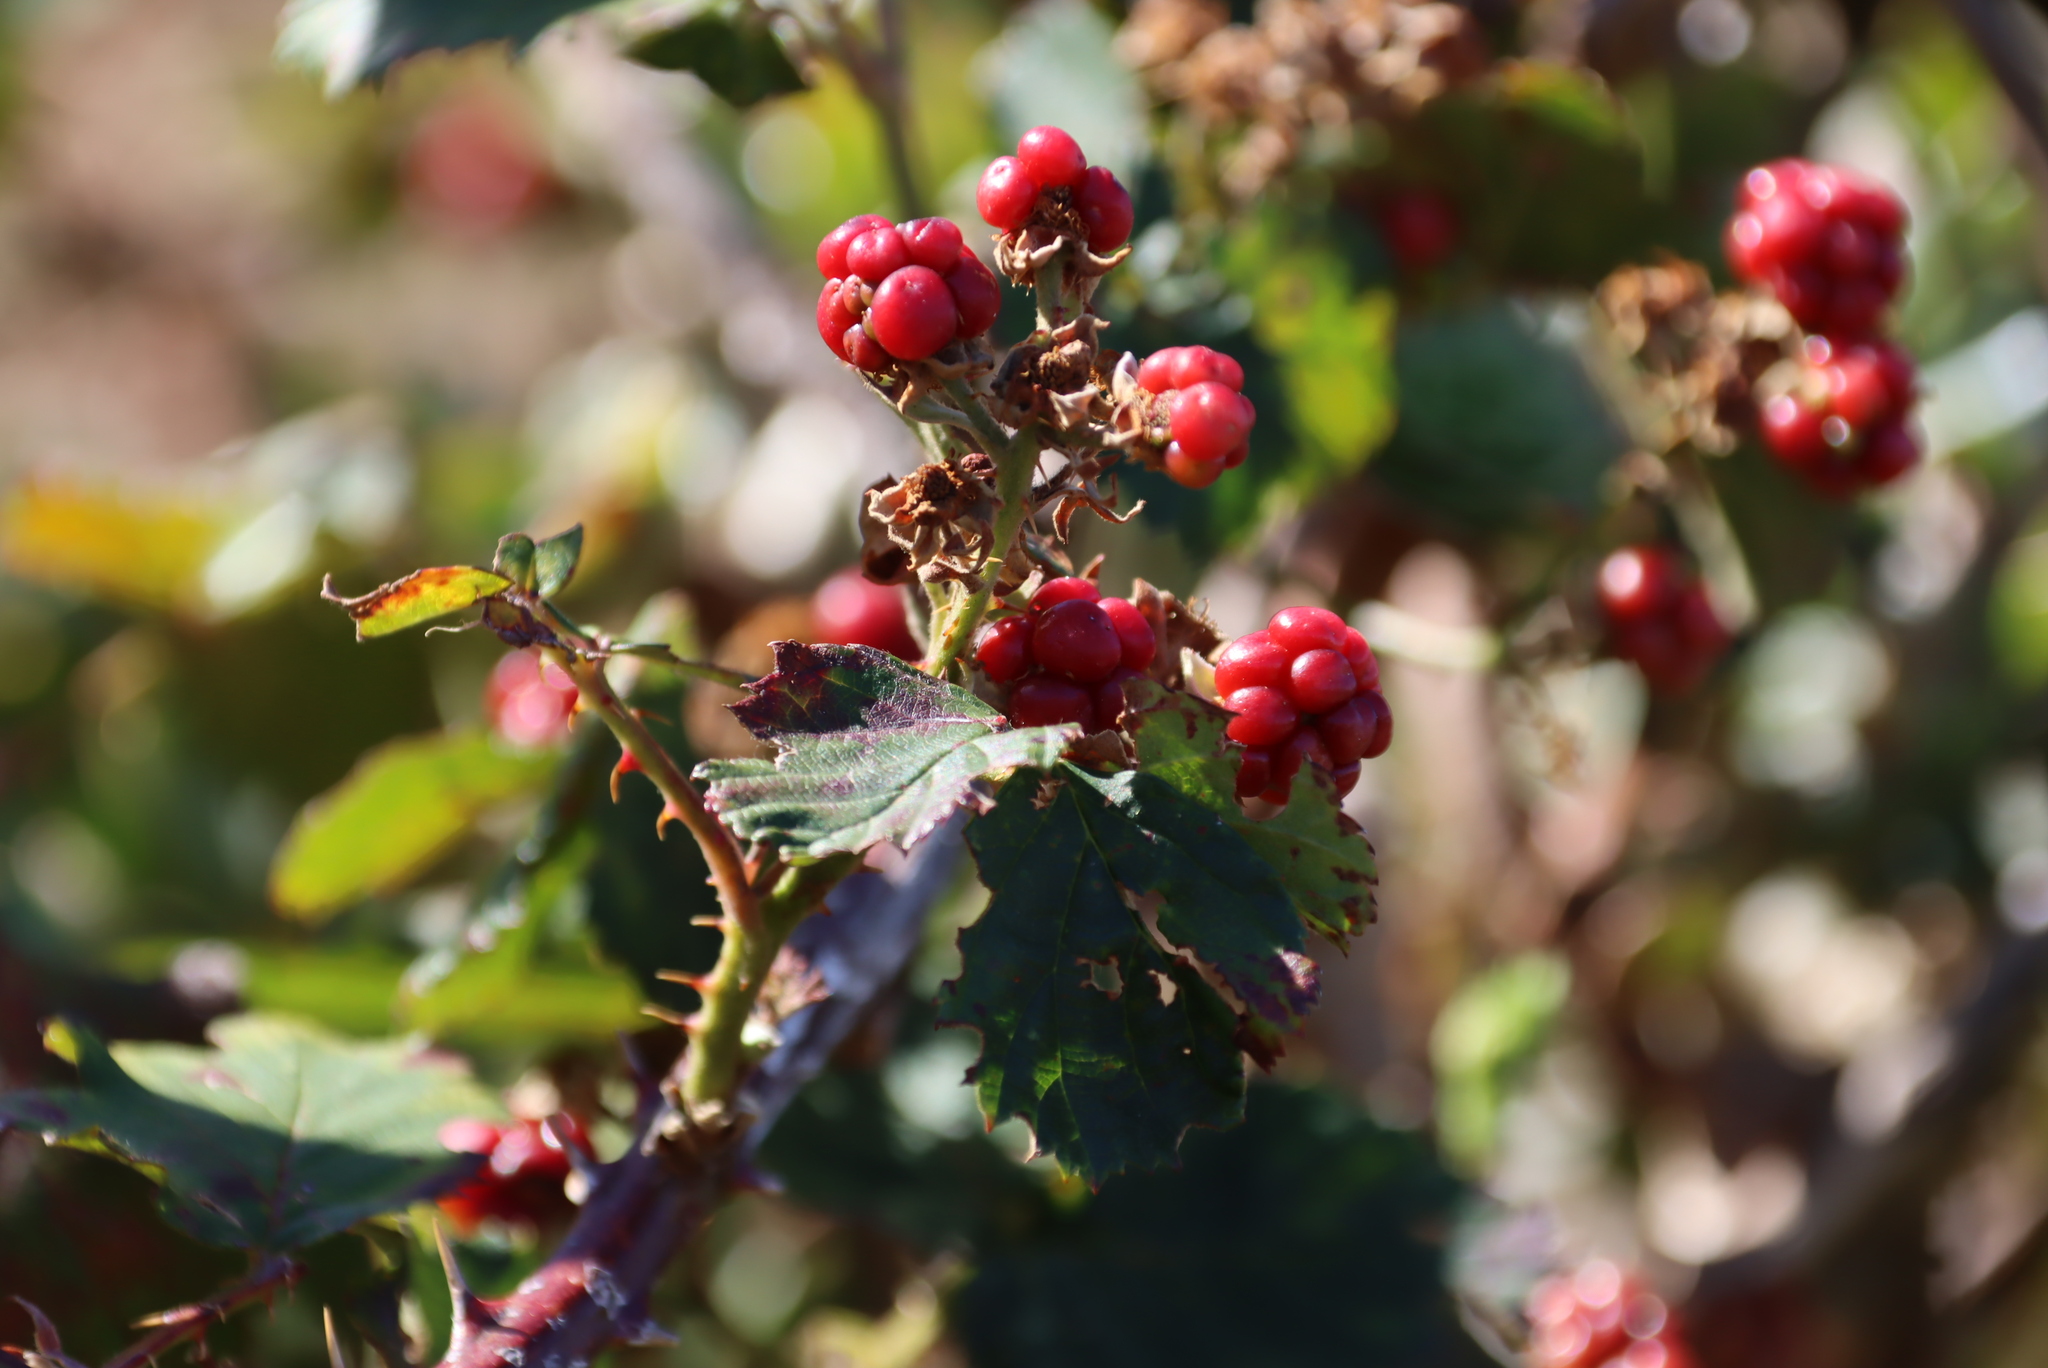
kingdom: Plantae
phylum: Tracheophyta
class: Magnoliopsida
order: Rosales
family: Rosaceae
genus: Rubus
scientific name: Rubus affinis
